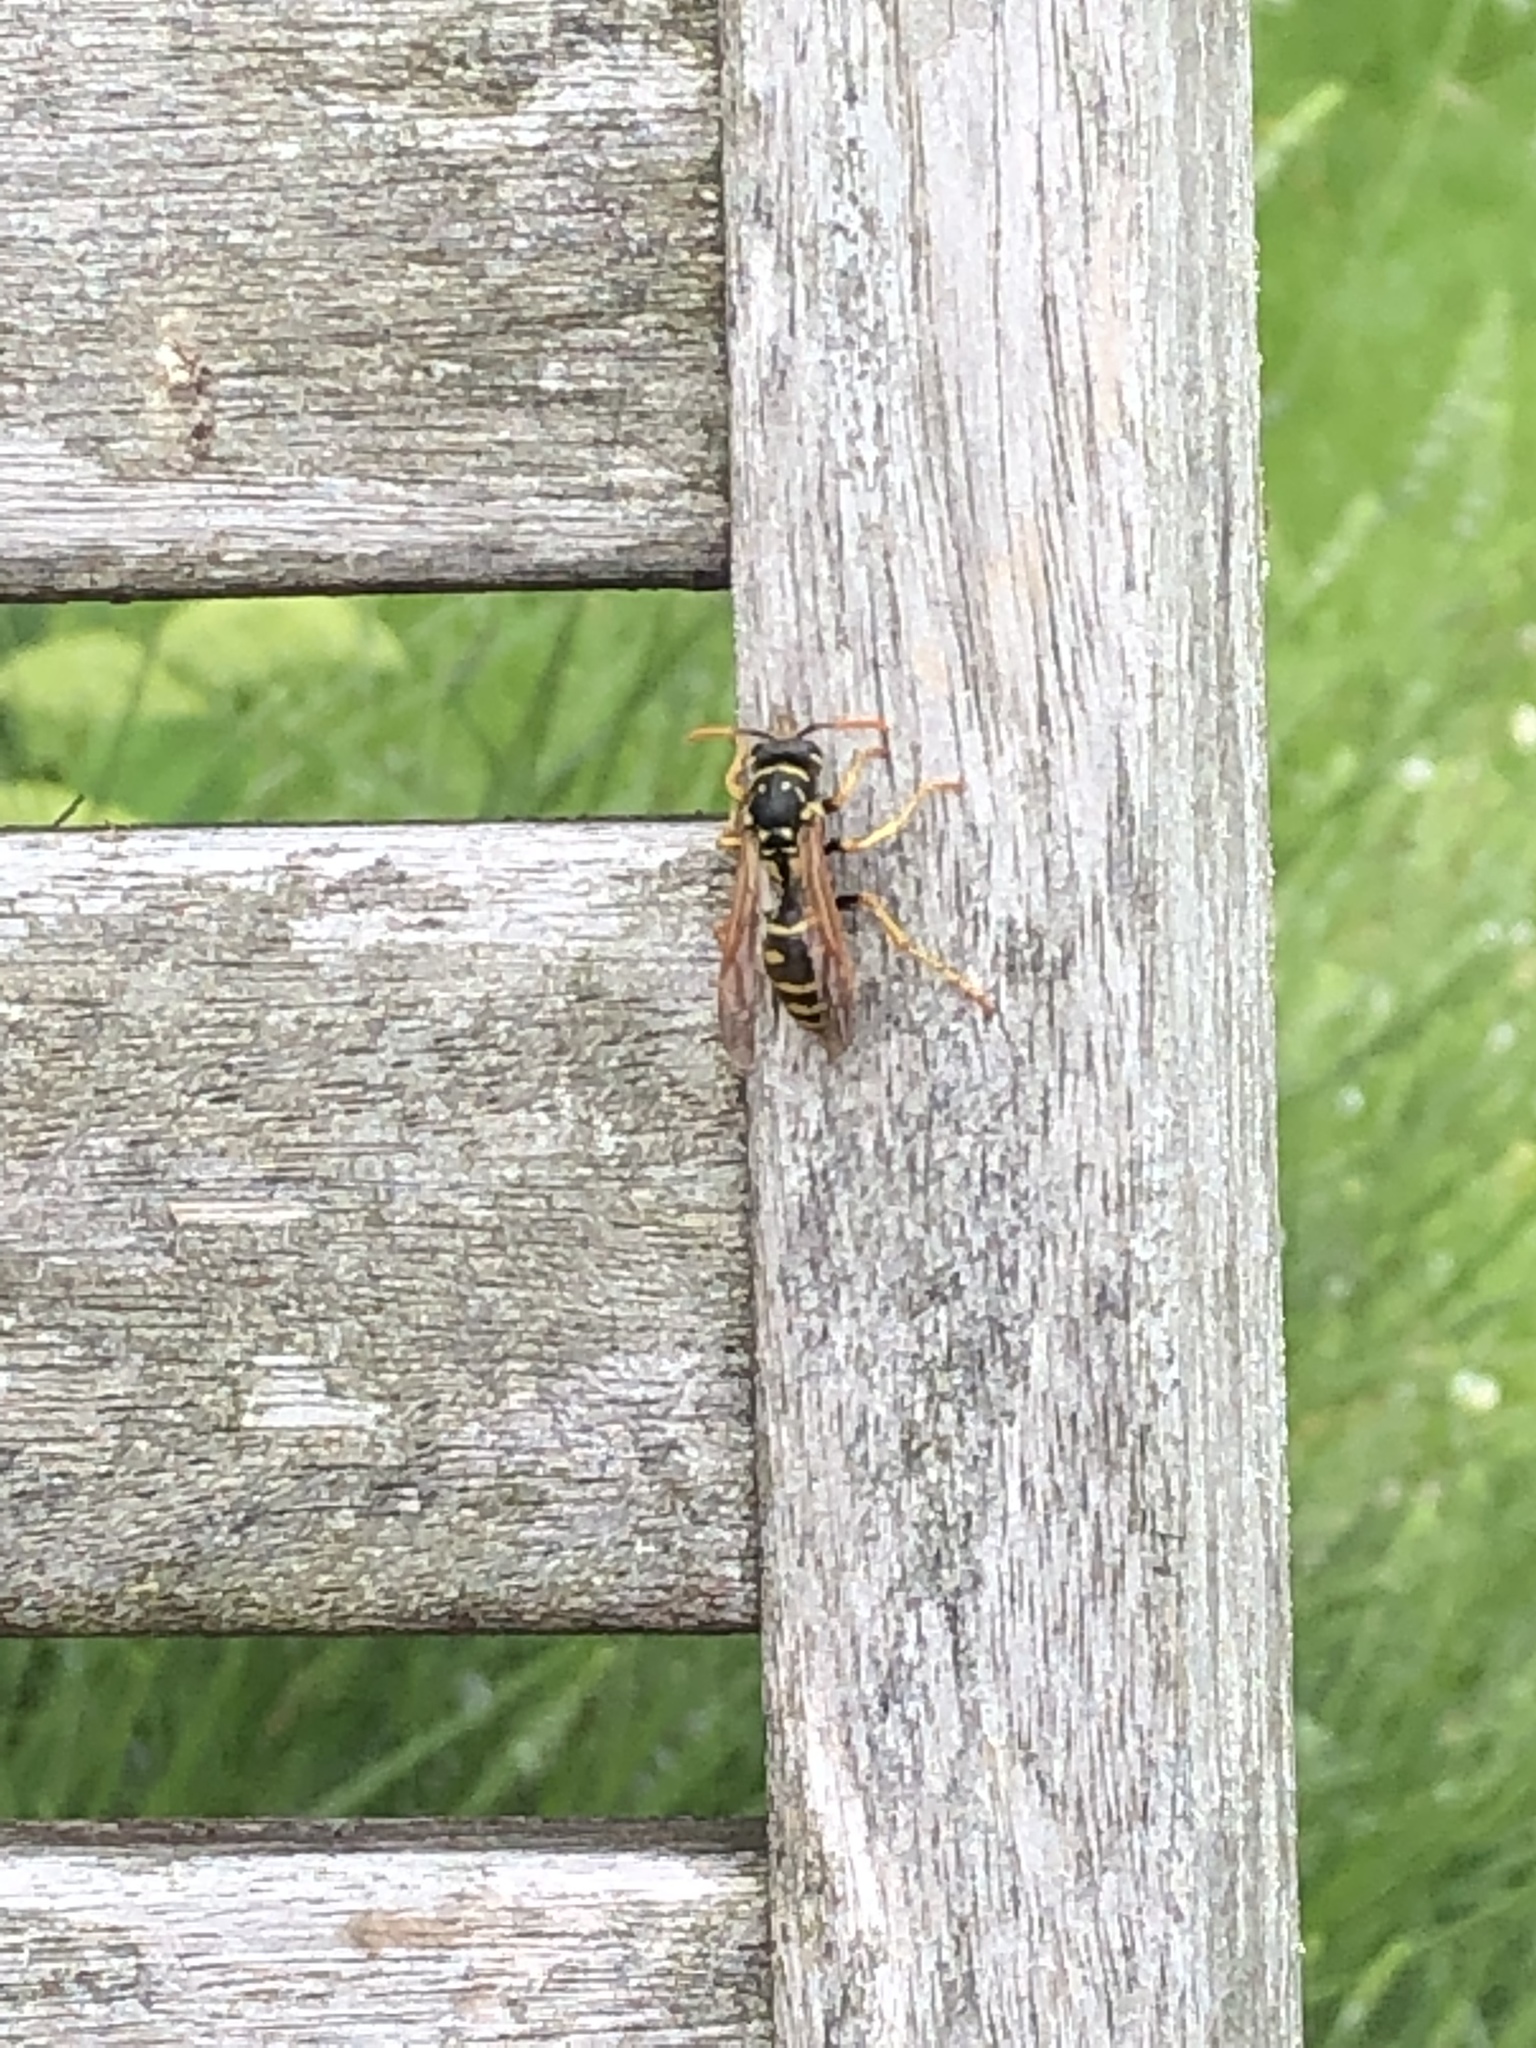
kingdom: Animalia
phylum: Arthropoda
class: Insecta
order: Hymenoptera
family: Eumenidae
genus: Polistes
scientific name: Polistes dominula
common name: Paper wasp
